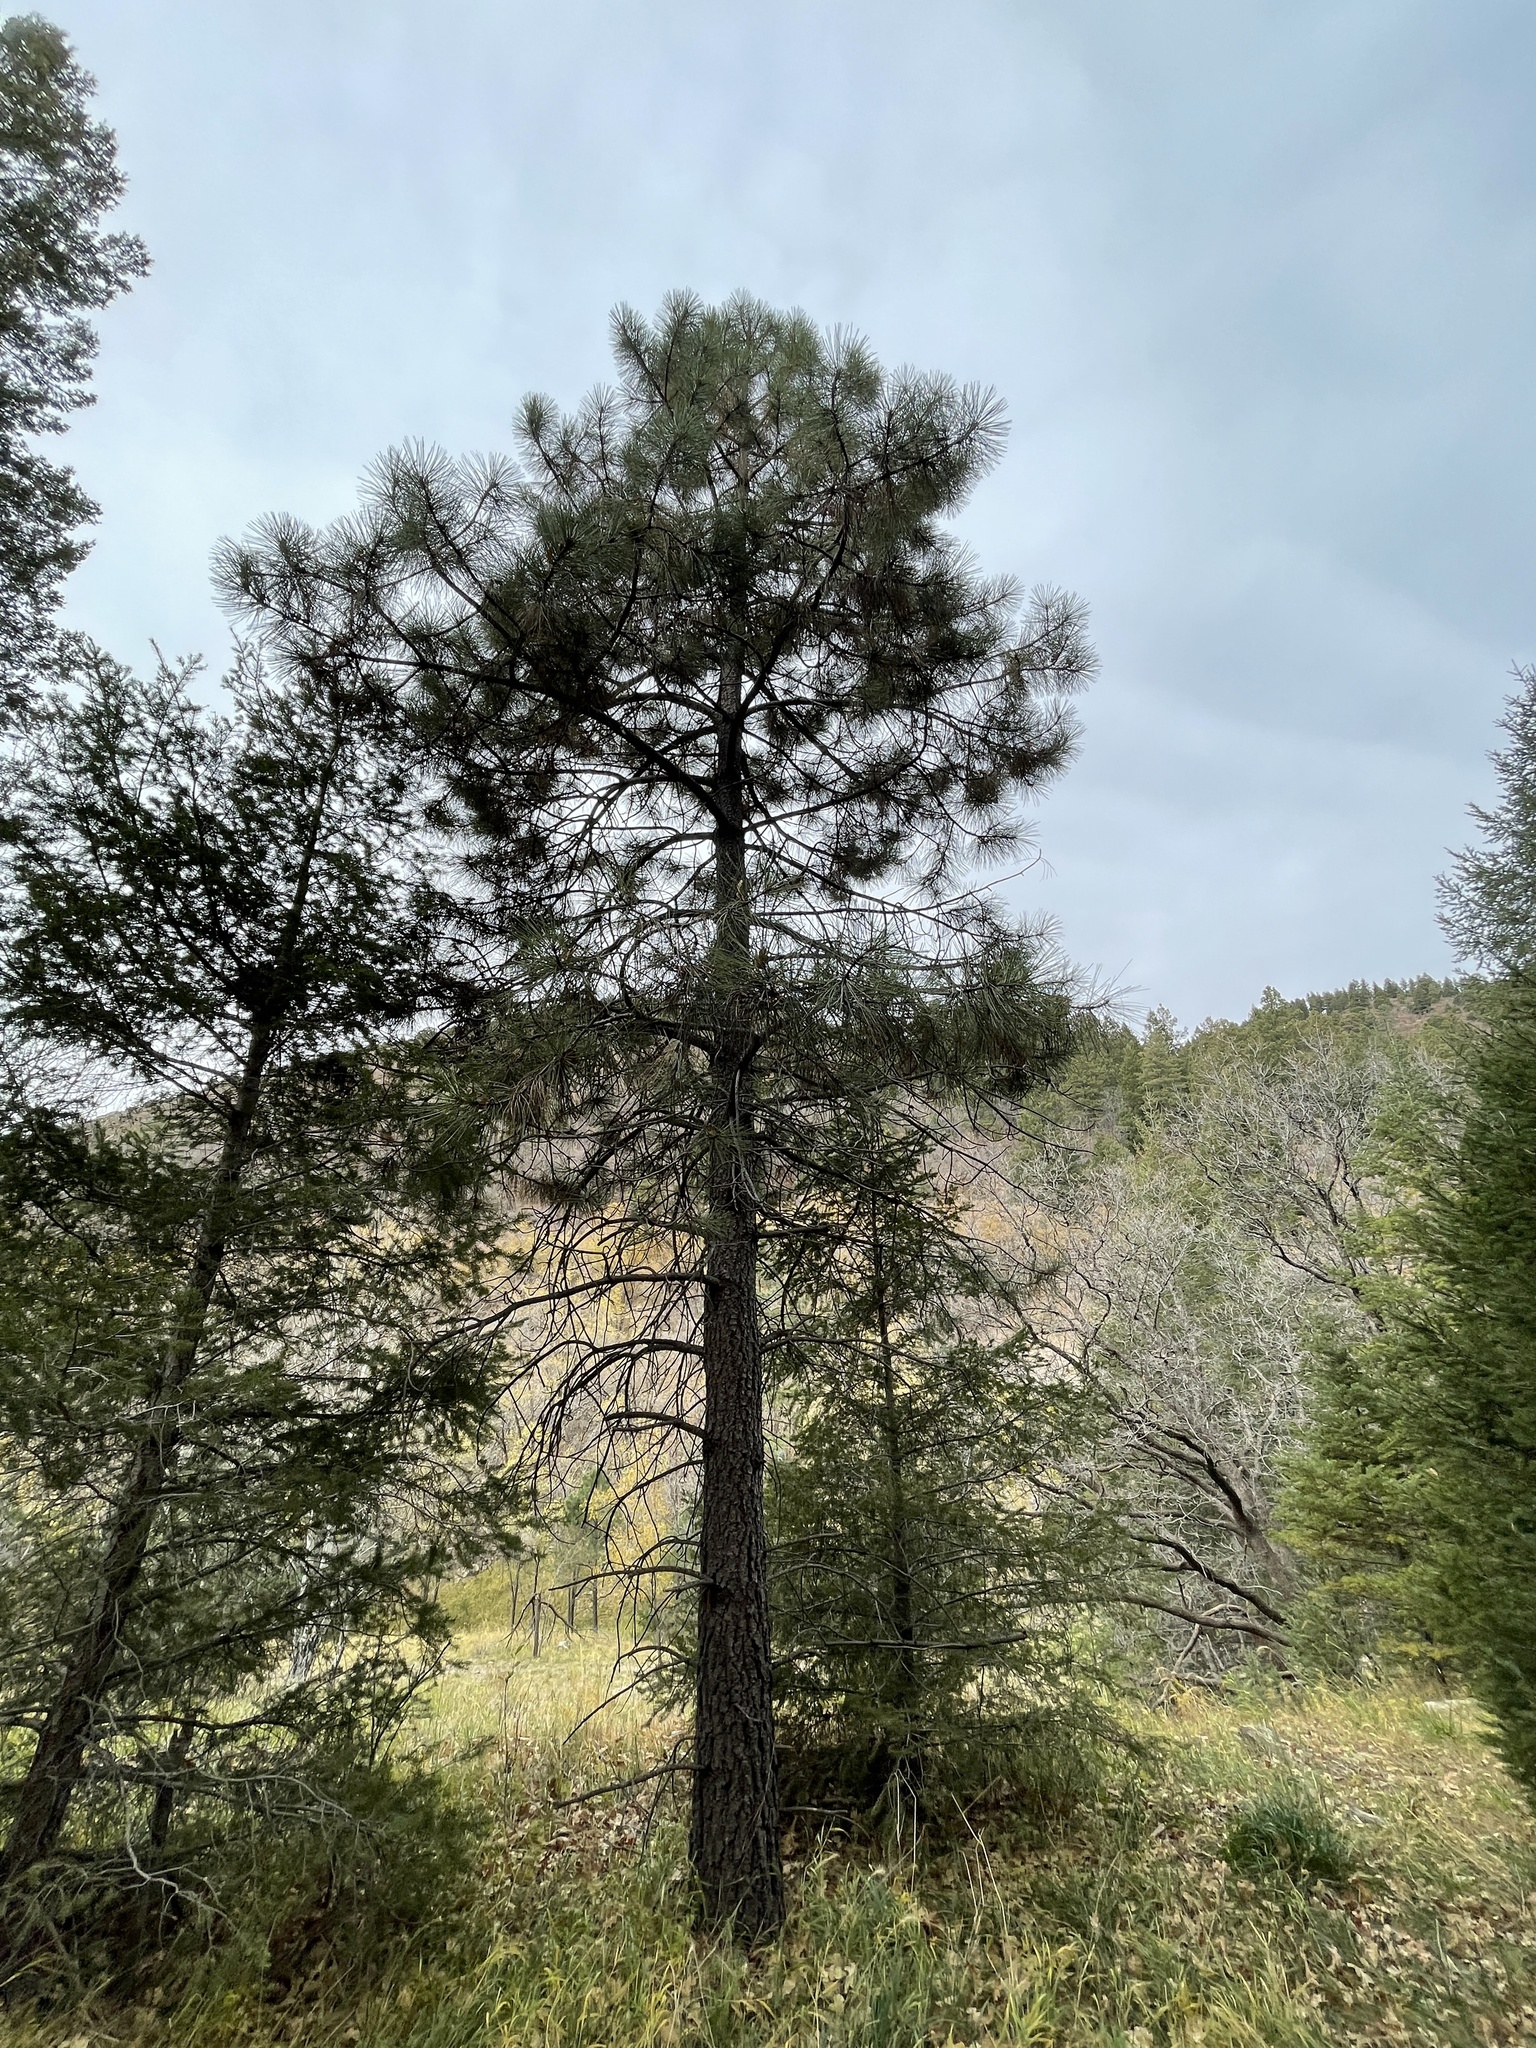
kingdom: Plantae
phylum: Tracheophyta
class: Pinopsida
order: Pinales
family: Pinaceae
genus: Pinus
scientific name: Pinus ponderosa
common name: Western yellow-pine
